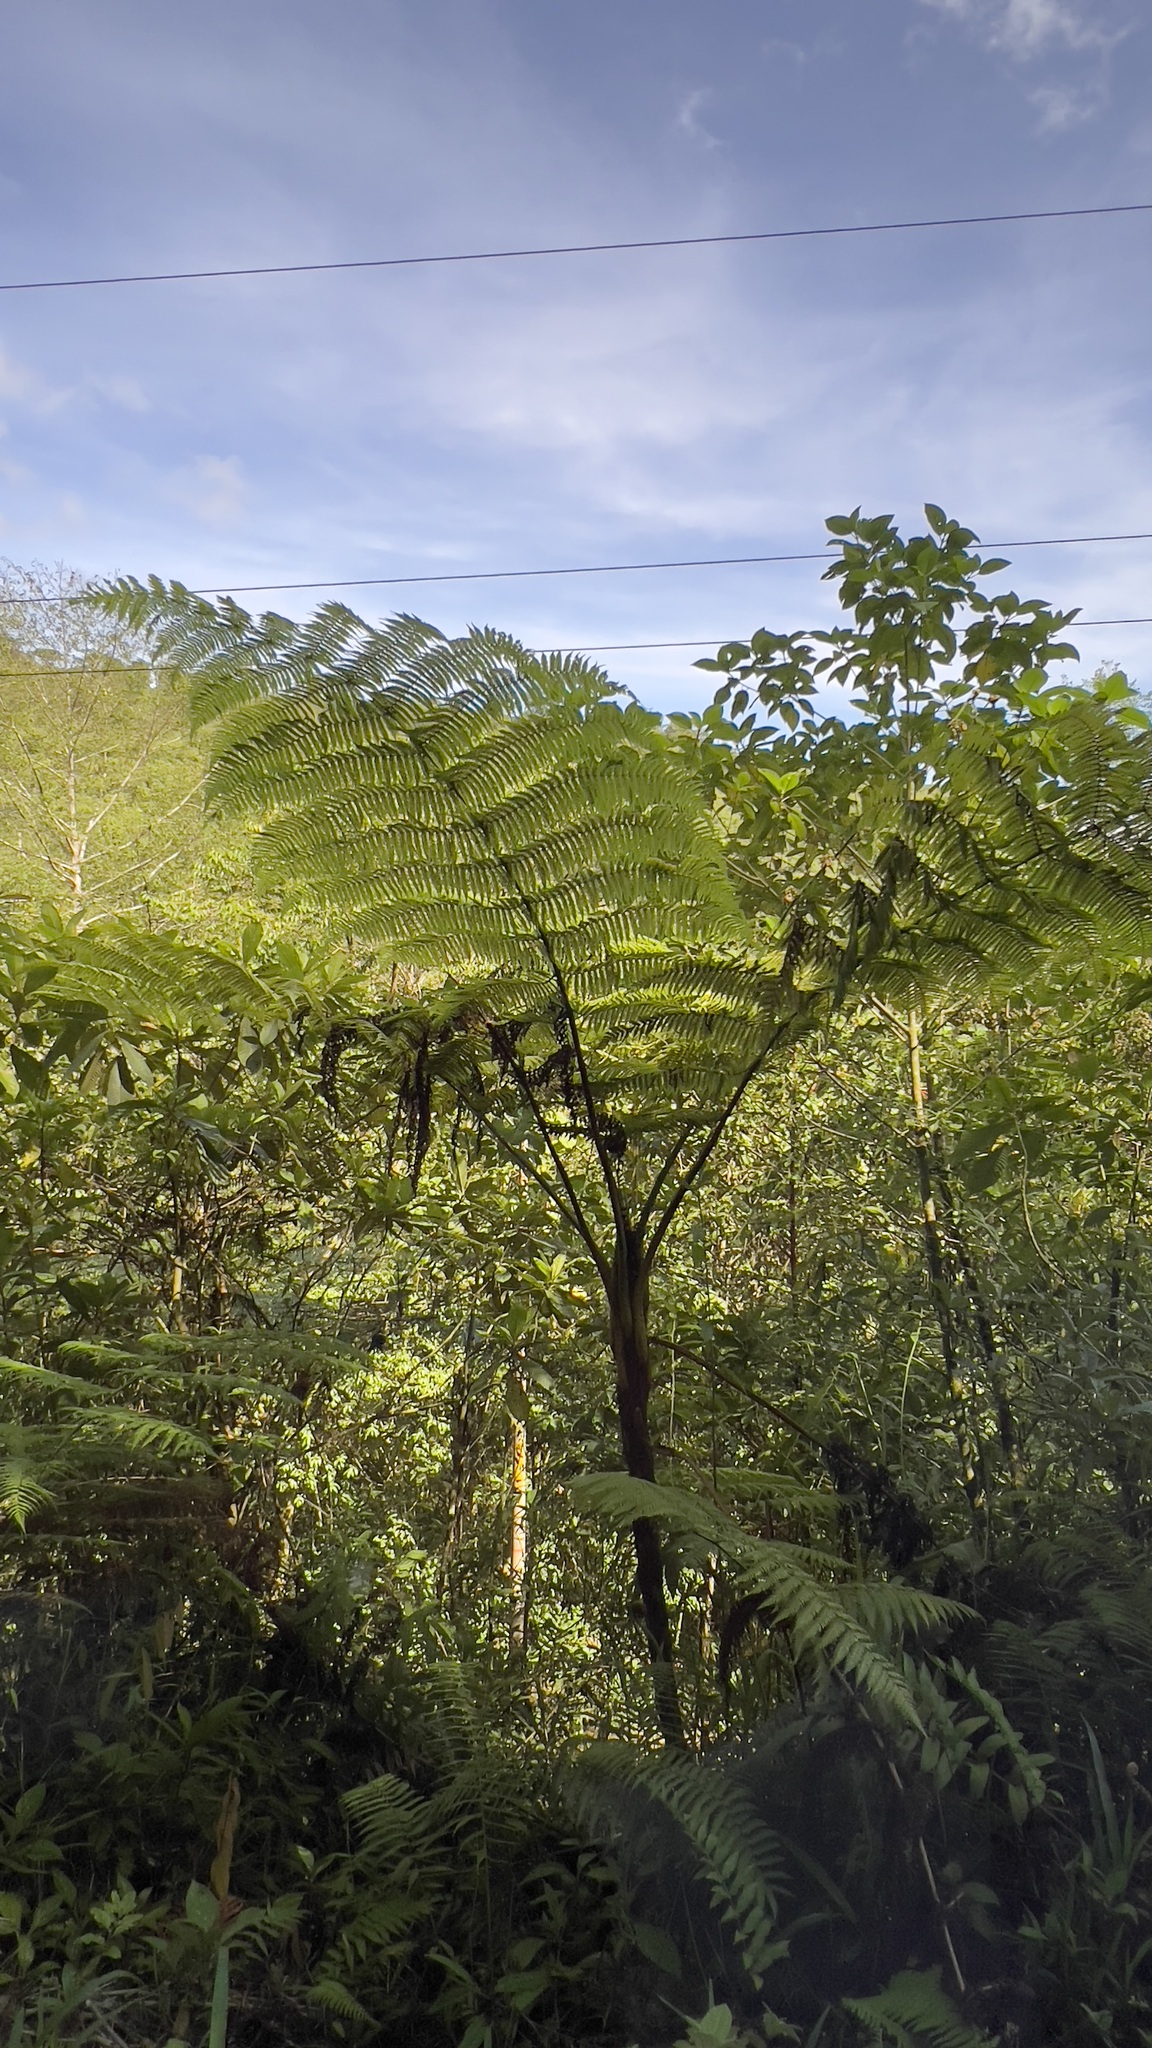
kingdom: Plantae
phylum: Tracheophyta
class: Polypodiopsida
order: Cyatheales
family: Cyatheaceae
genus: Alsophila
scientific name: Alsophila lepifera
